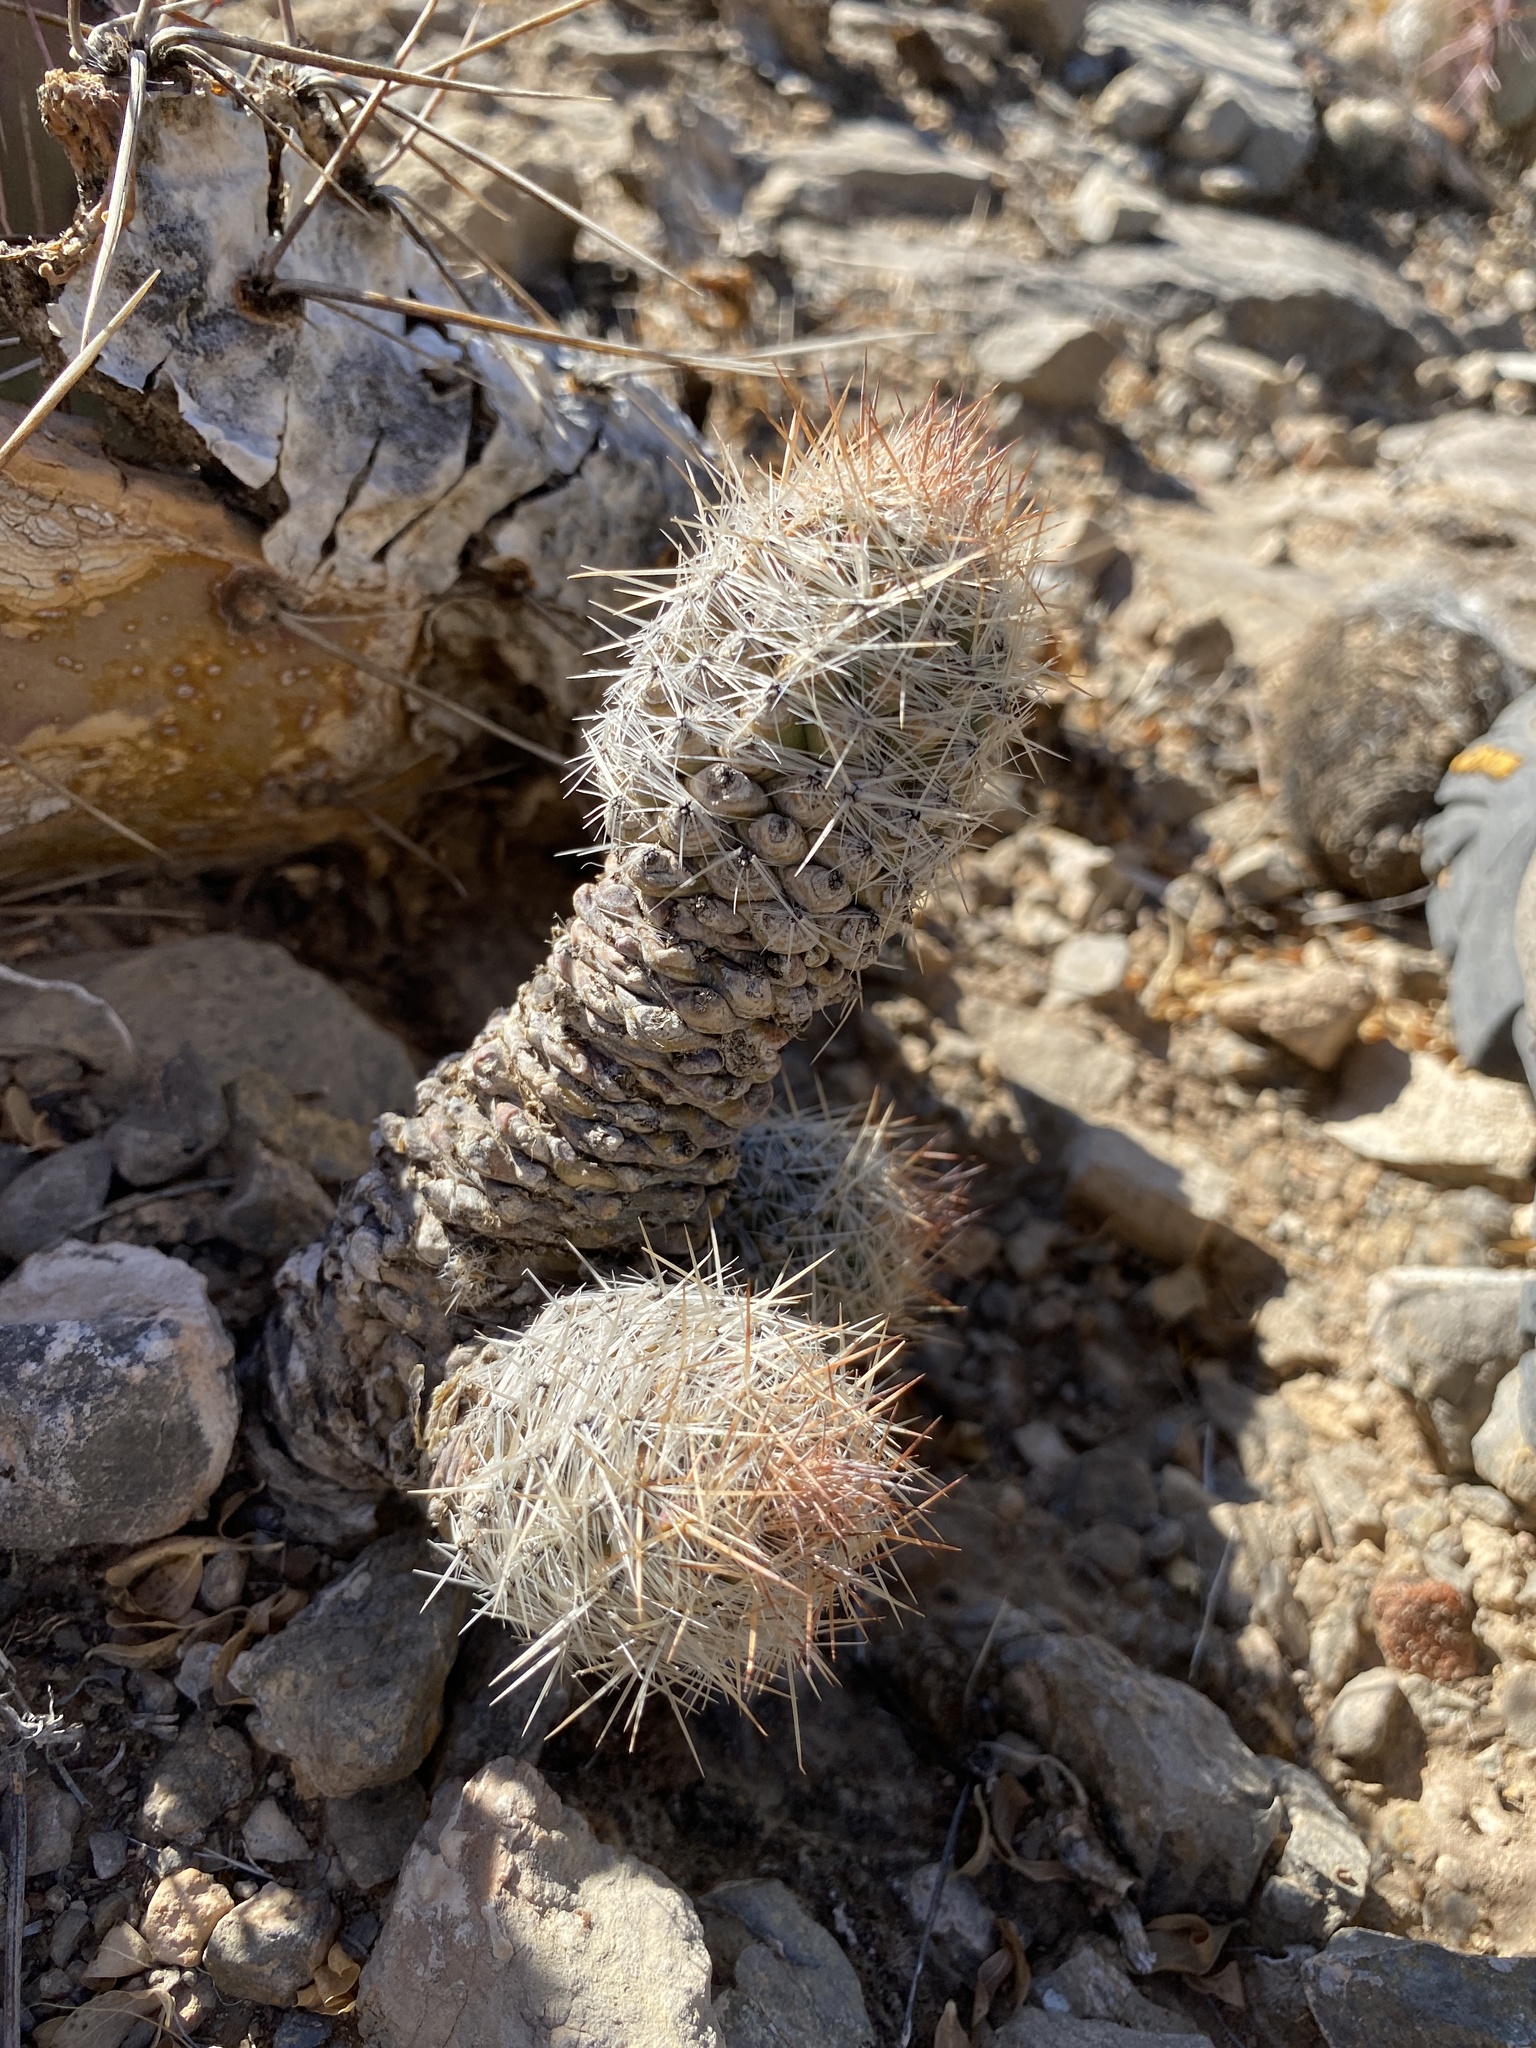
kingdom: Plantae
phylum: Tracheophyta
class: Magnoliopsida
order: Caryophyllales
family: Cactaceae
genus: Pelecyphora
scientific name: Pelecyphora tuberculosa
